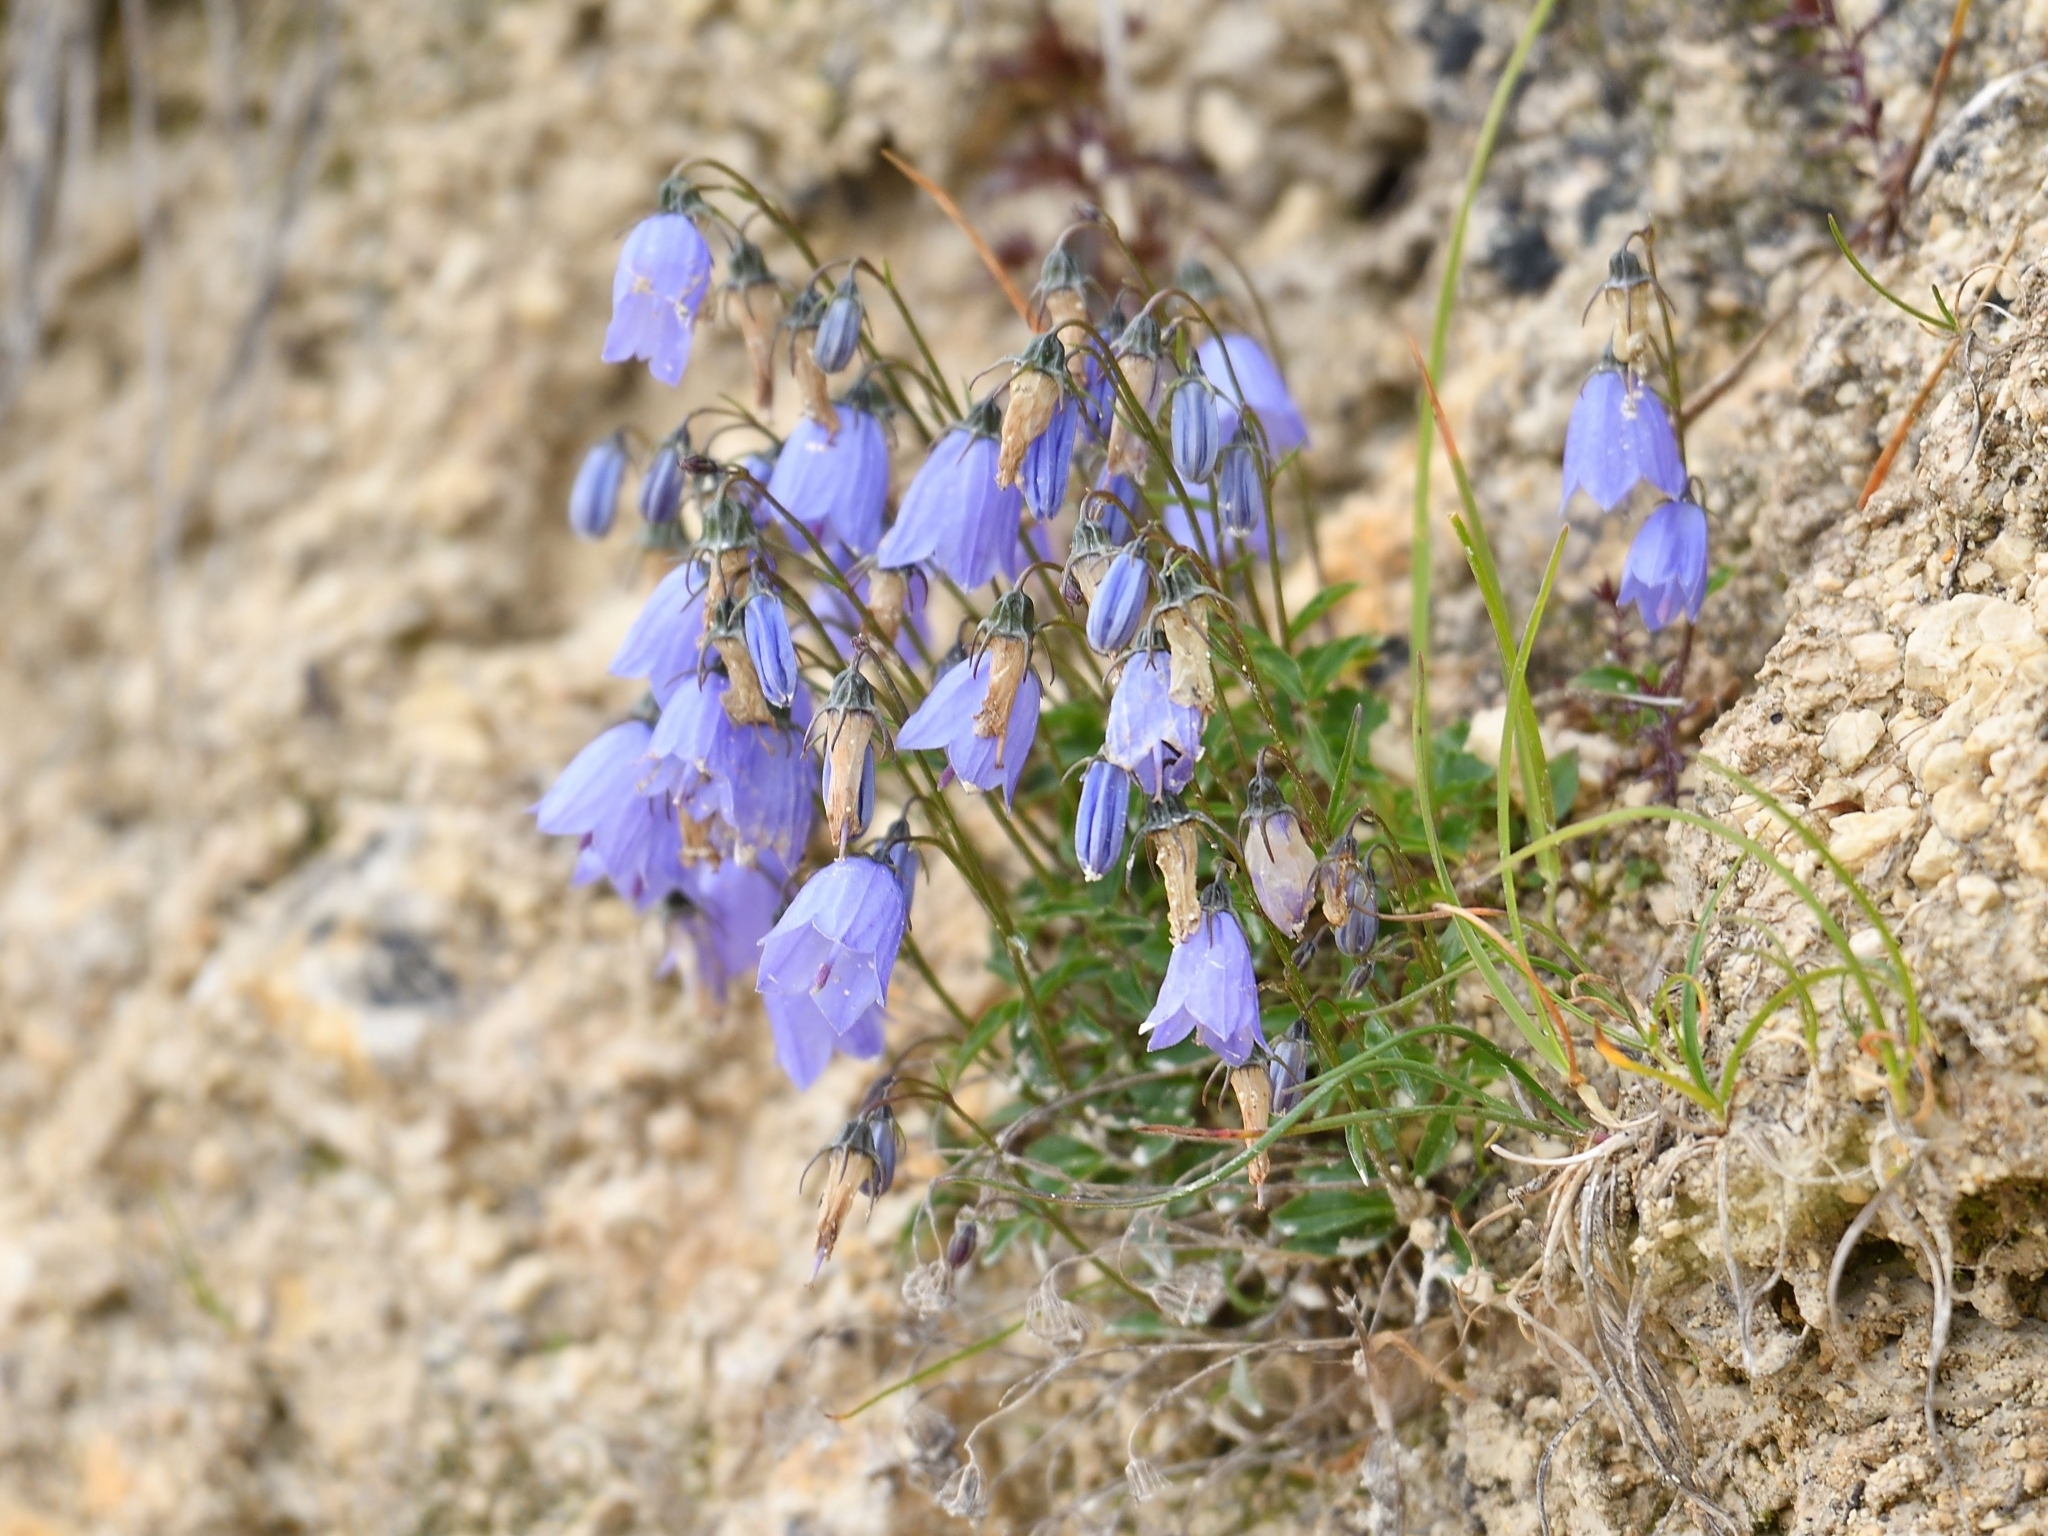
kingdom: Plantae
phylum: Tracheophyta
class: Magnoliopsida
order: Asterales
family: Campanulaceae
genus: Campanula
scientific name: Campanula cochleariifolia
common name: Fairies'-thimbles
